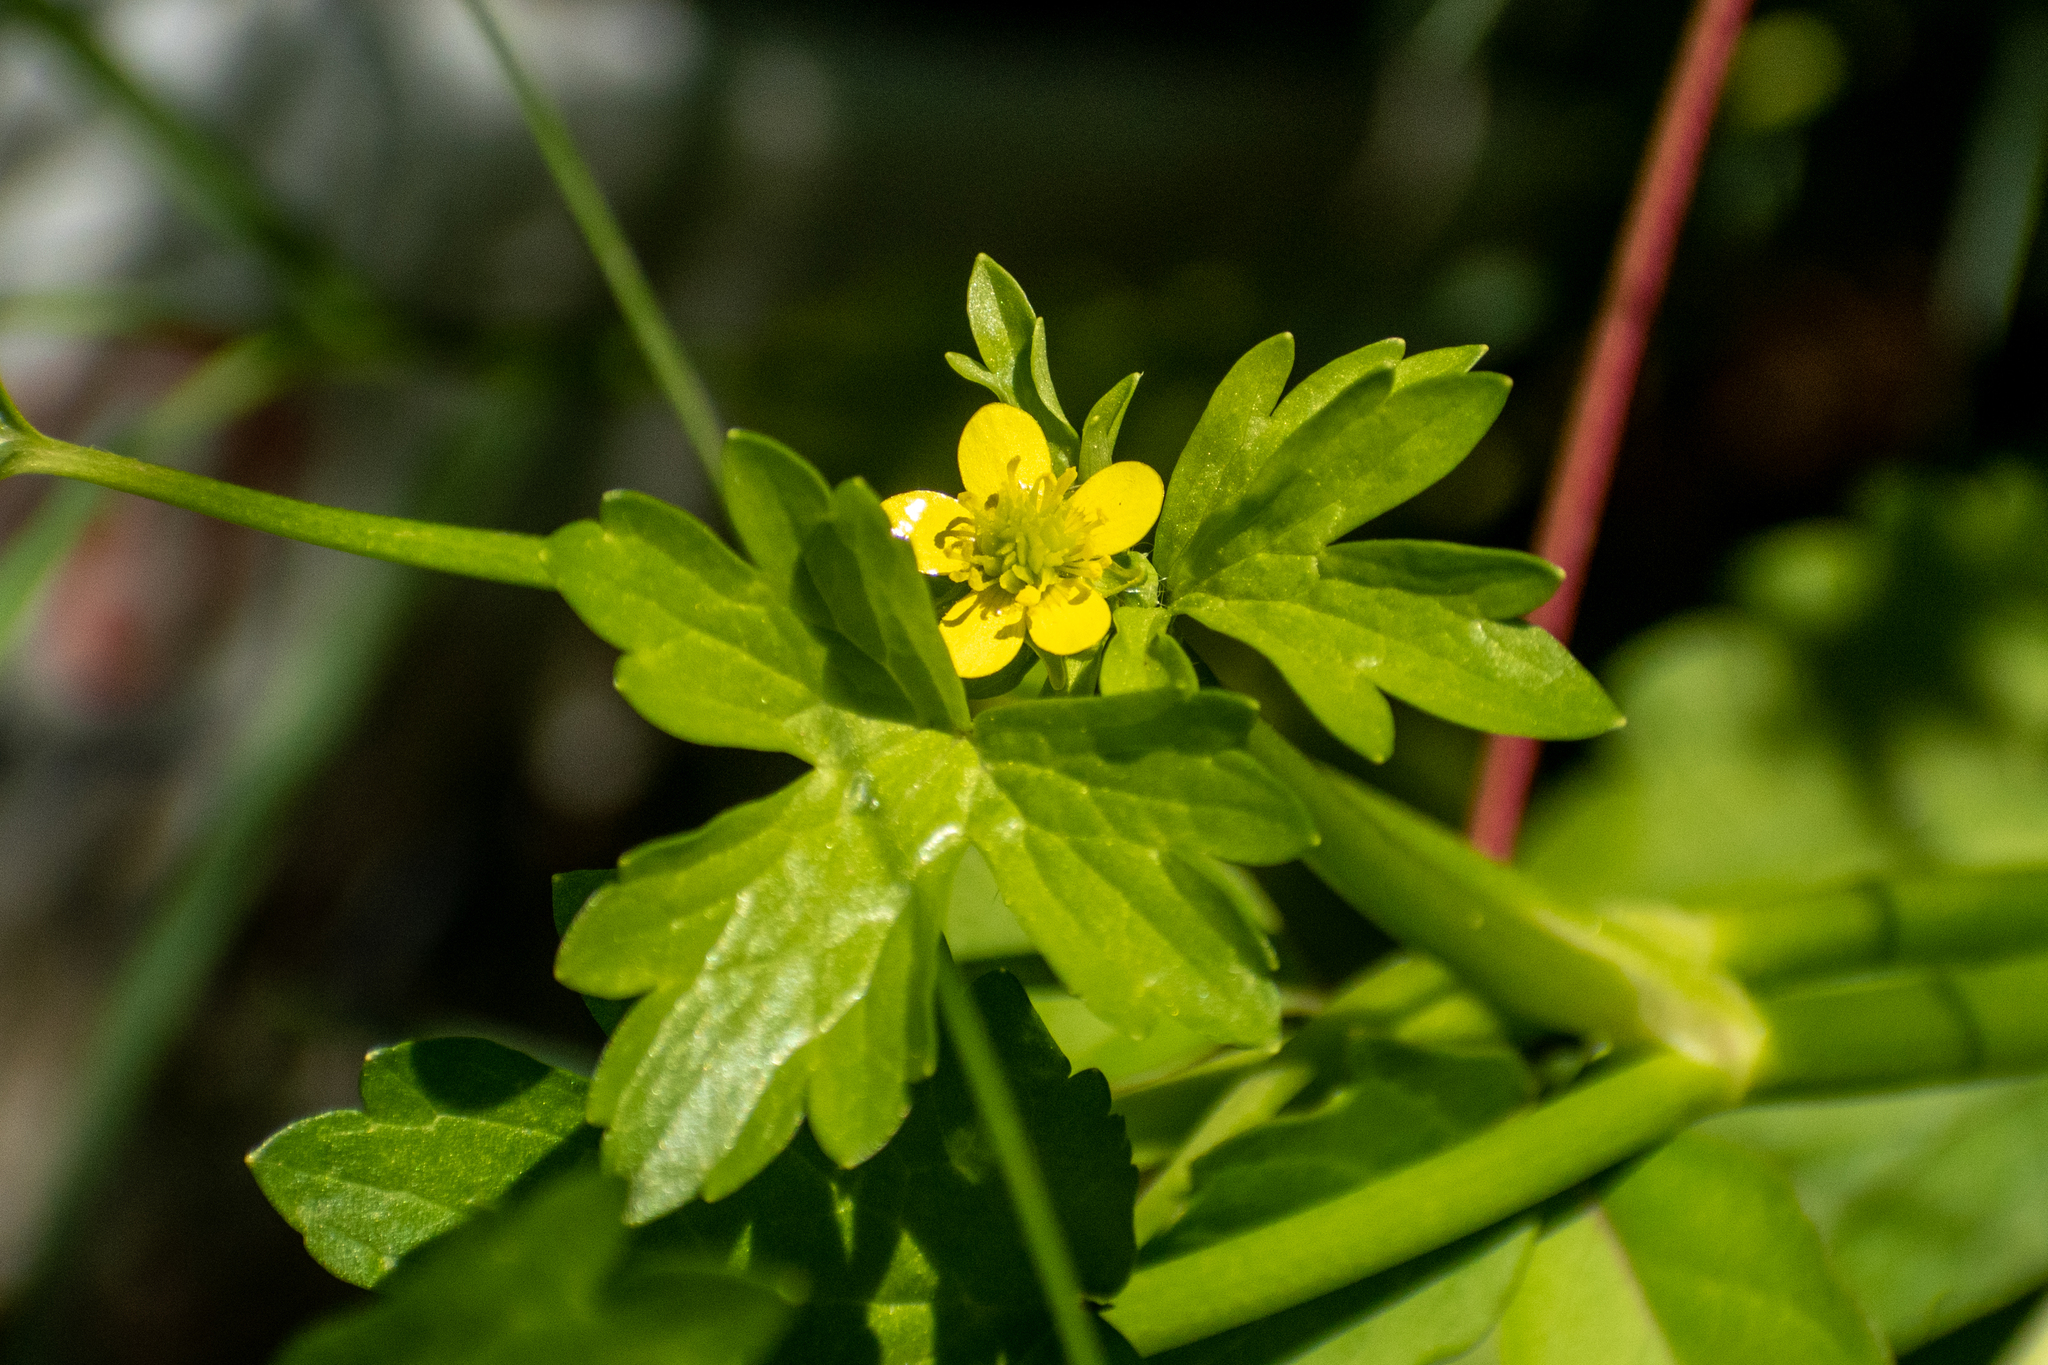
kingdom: Plantae
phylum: Tracheophyta
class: Magnoliopsida
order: Ranunculales
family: Ranunculaceae
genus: Ranunculus
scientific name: Ranunculus muricatus
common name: Rough-fruited buttercup
